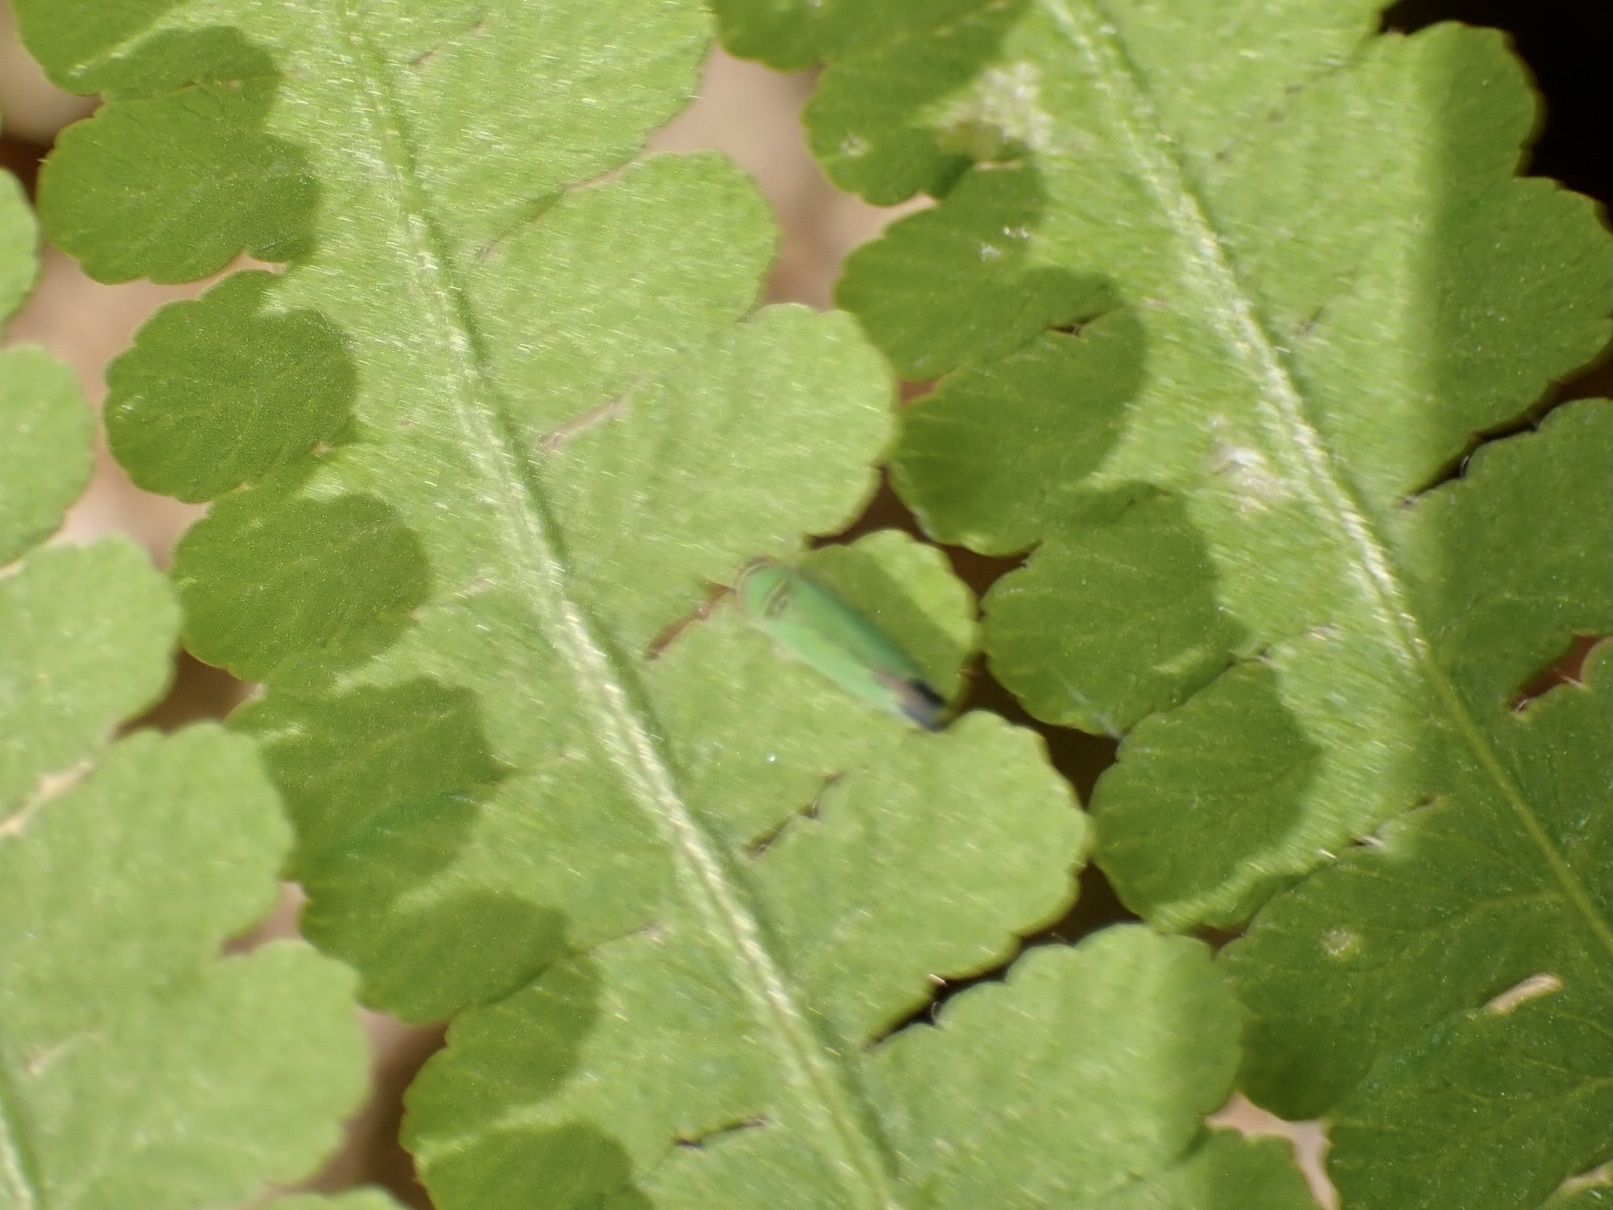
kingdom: Animalia
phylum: Arthropoda
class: Insecta
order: Hemiptera
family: Cicadellidae
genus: Tylozygus
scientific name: Tylozygus geometricus
